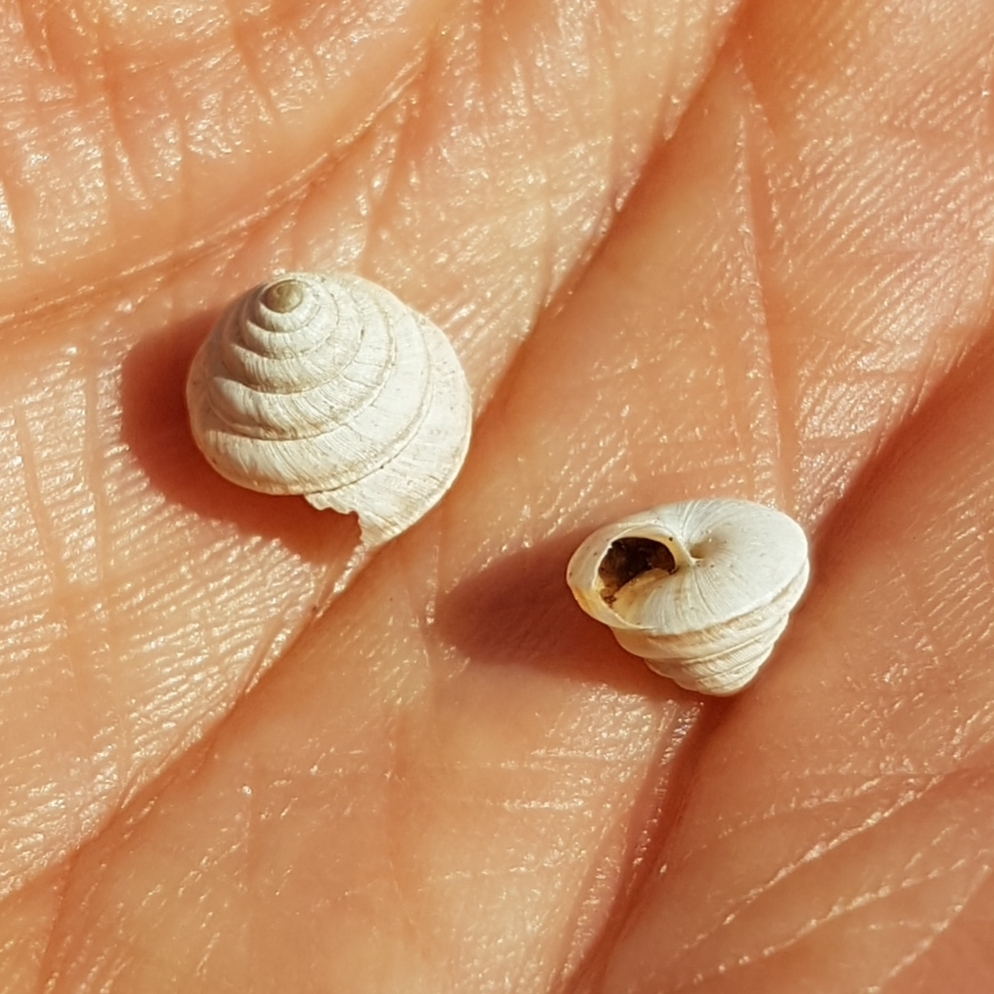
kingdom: Animalia
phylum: Mollusca
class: Gastropoda
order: Stylommatophora
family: Geomitridae
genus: Trochoidea
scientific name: Trochoidea trochoides
